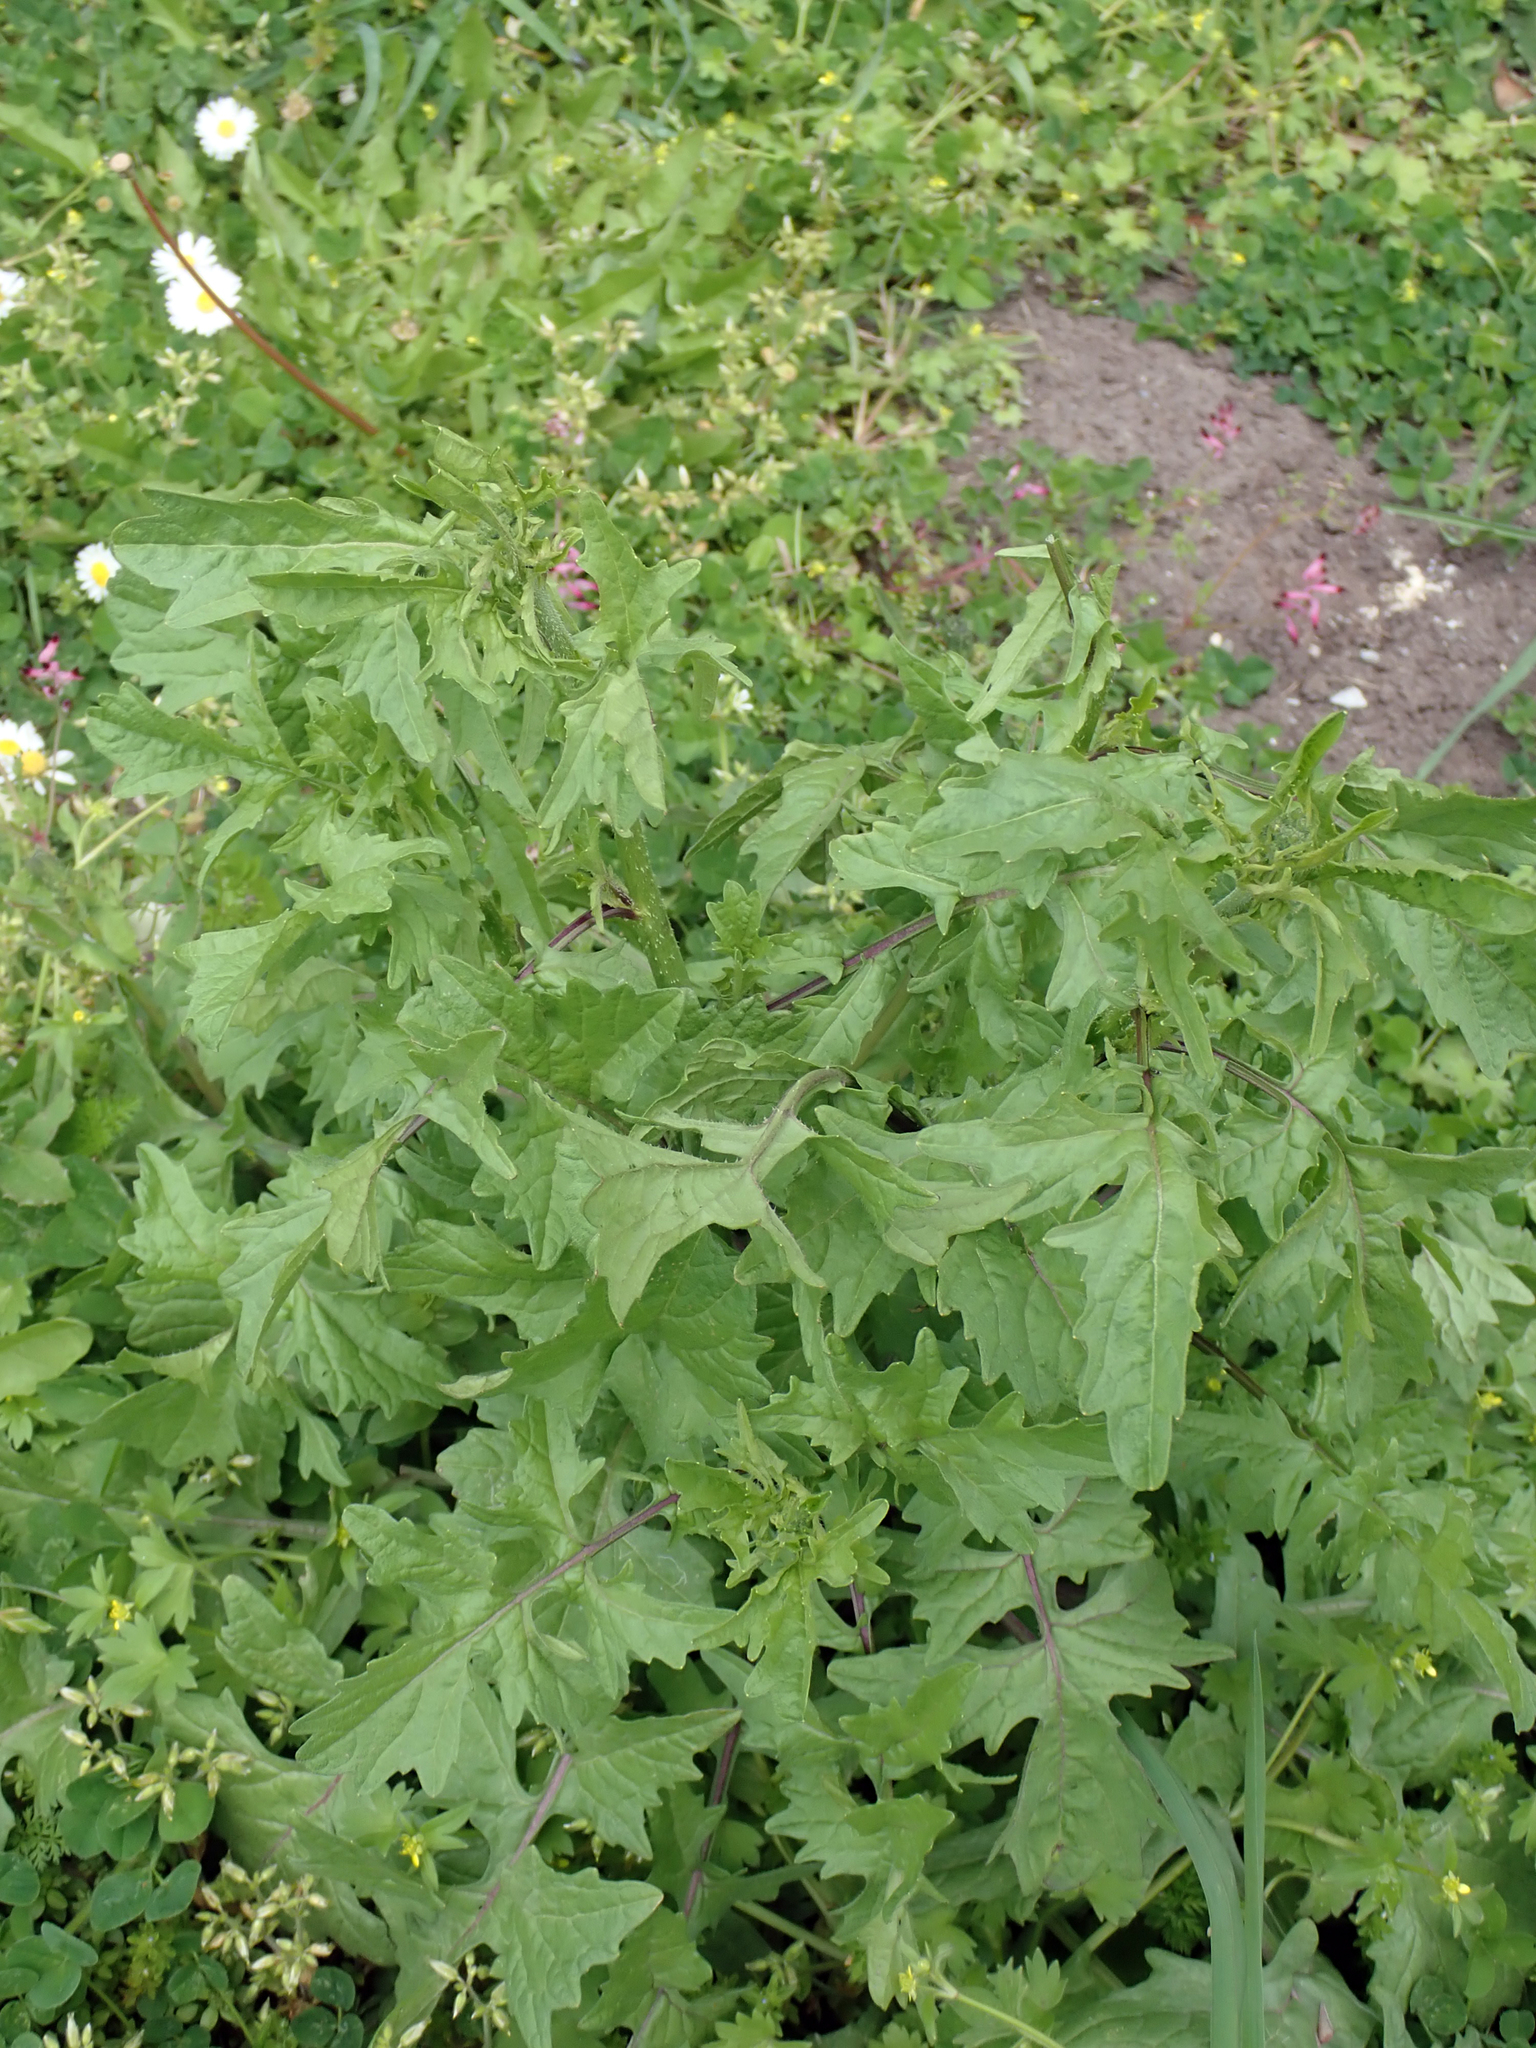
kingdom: Plantae
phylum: Tracheophyta
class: Magnoliopsida
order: Brassicales
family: Brassicaceae
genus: Sisymbrium
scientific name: Sisymbrium officinale
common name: Hedge mustard
